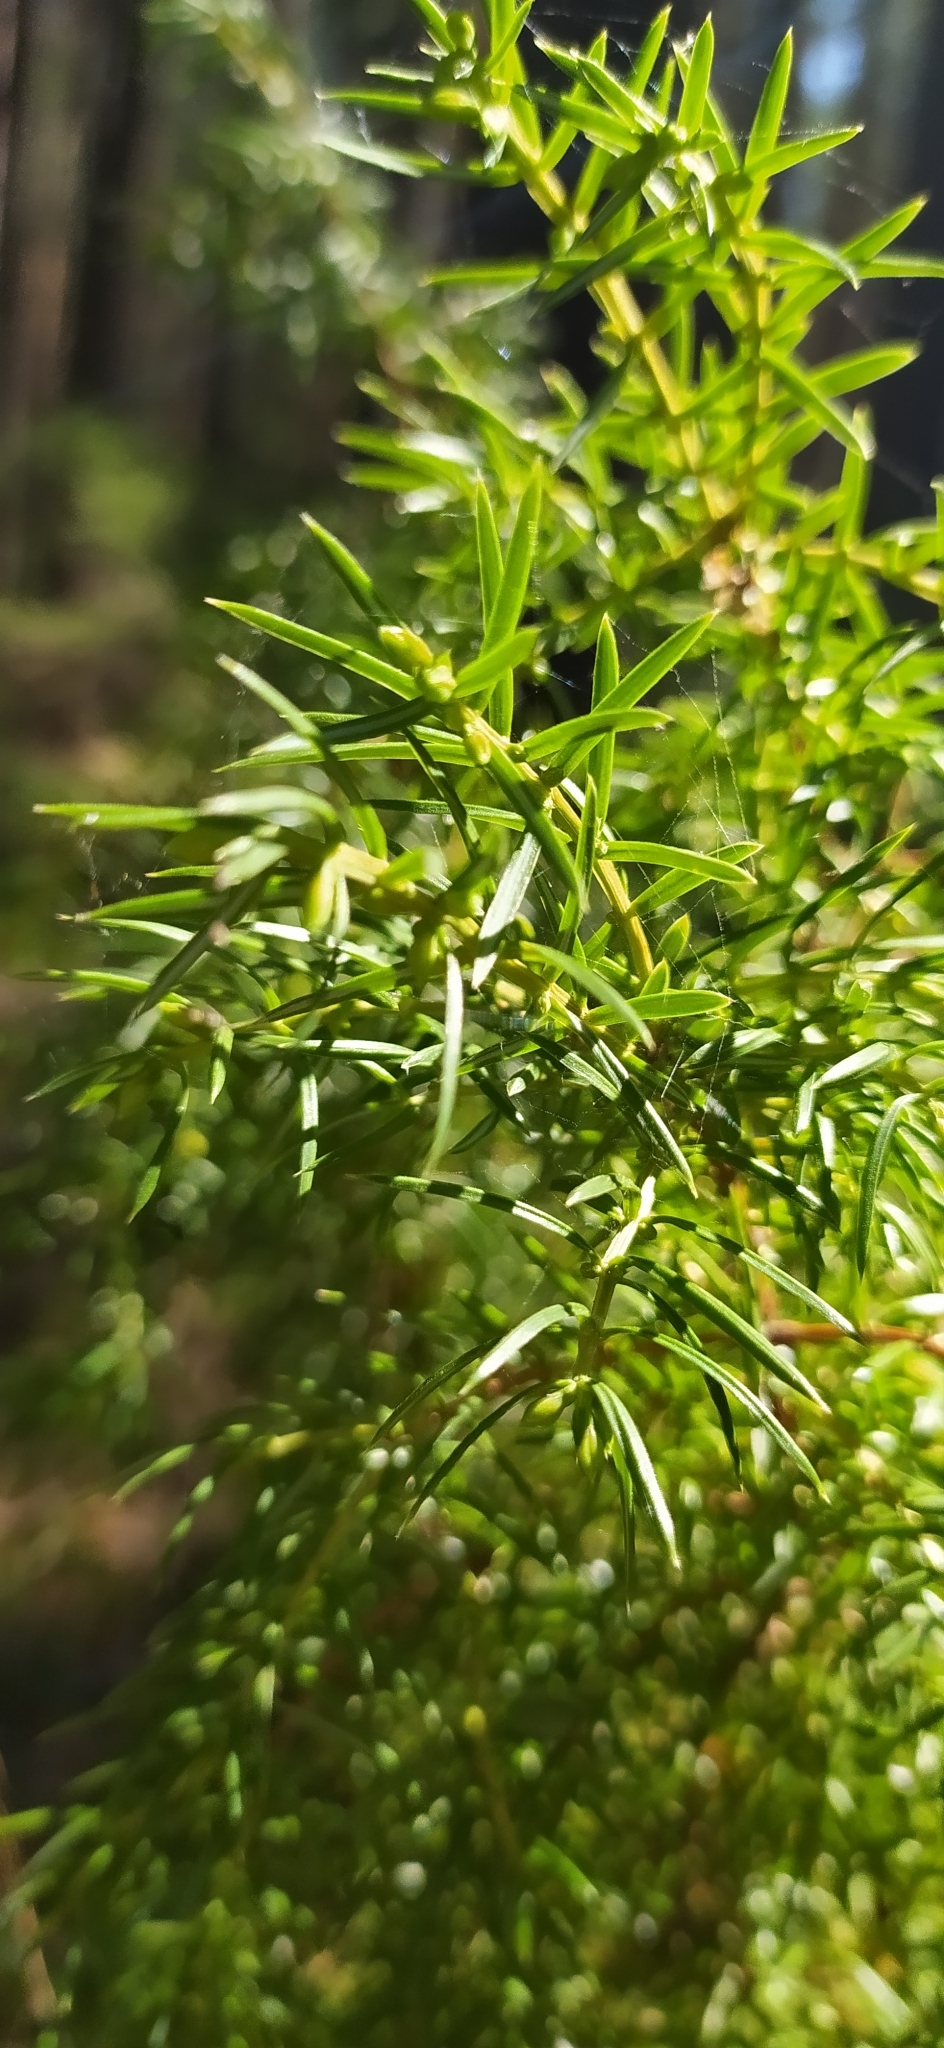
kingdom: Plantae
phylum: Tracheophyta
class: Pinopsida
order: Pinales
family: Cupressaceae
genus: Juniperus
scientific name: Juniperus communis
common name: Common juniper
